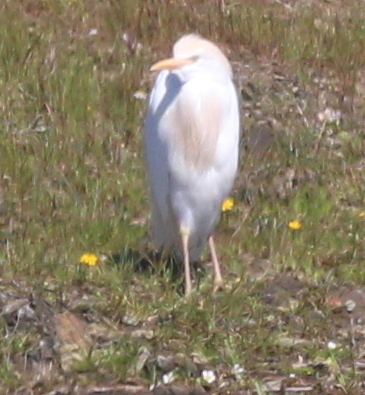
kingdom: Animalia
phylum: Chordata
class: Aves
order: Pelecaniformes
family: Ardeidae
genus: Bubulcus
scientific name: Bubulcus ibis
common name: Cattle egret
